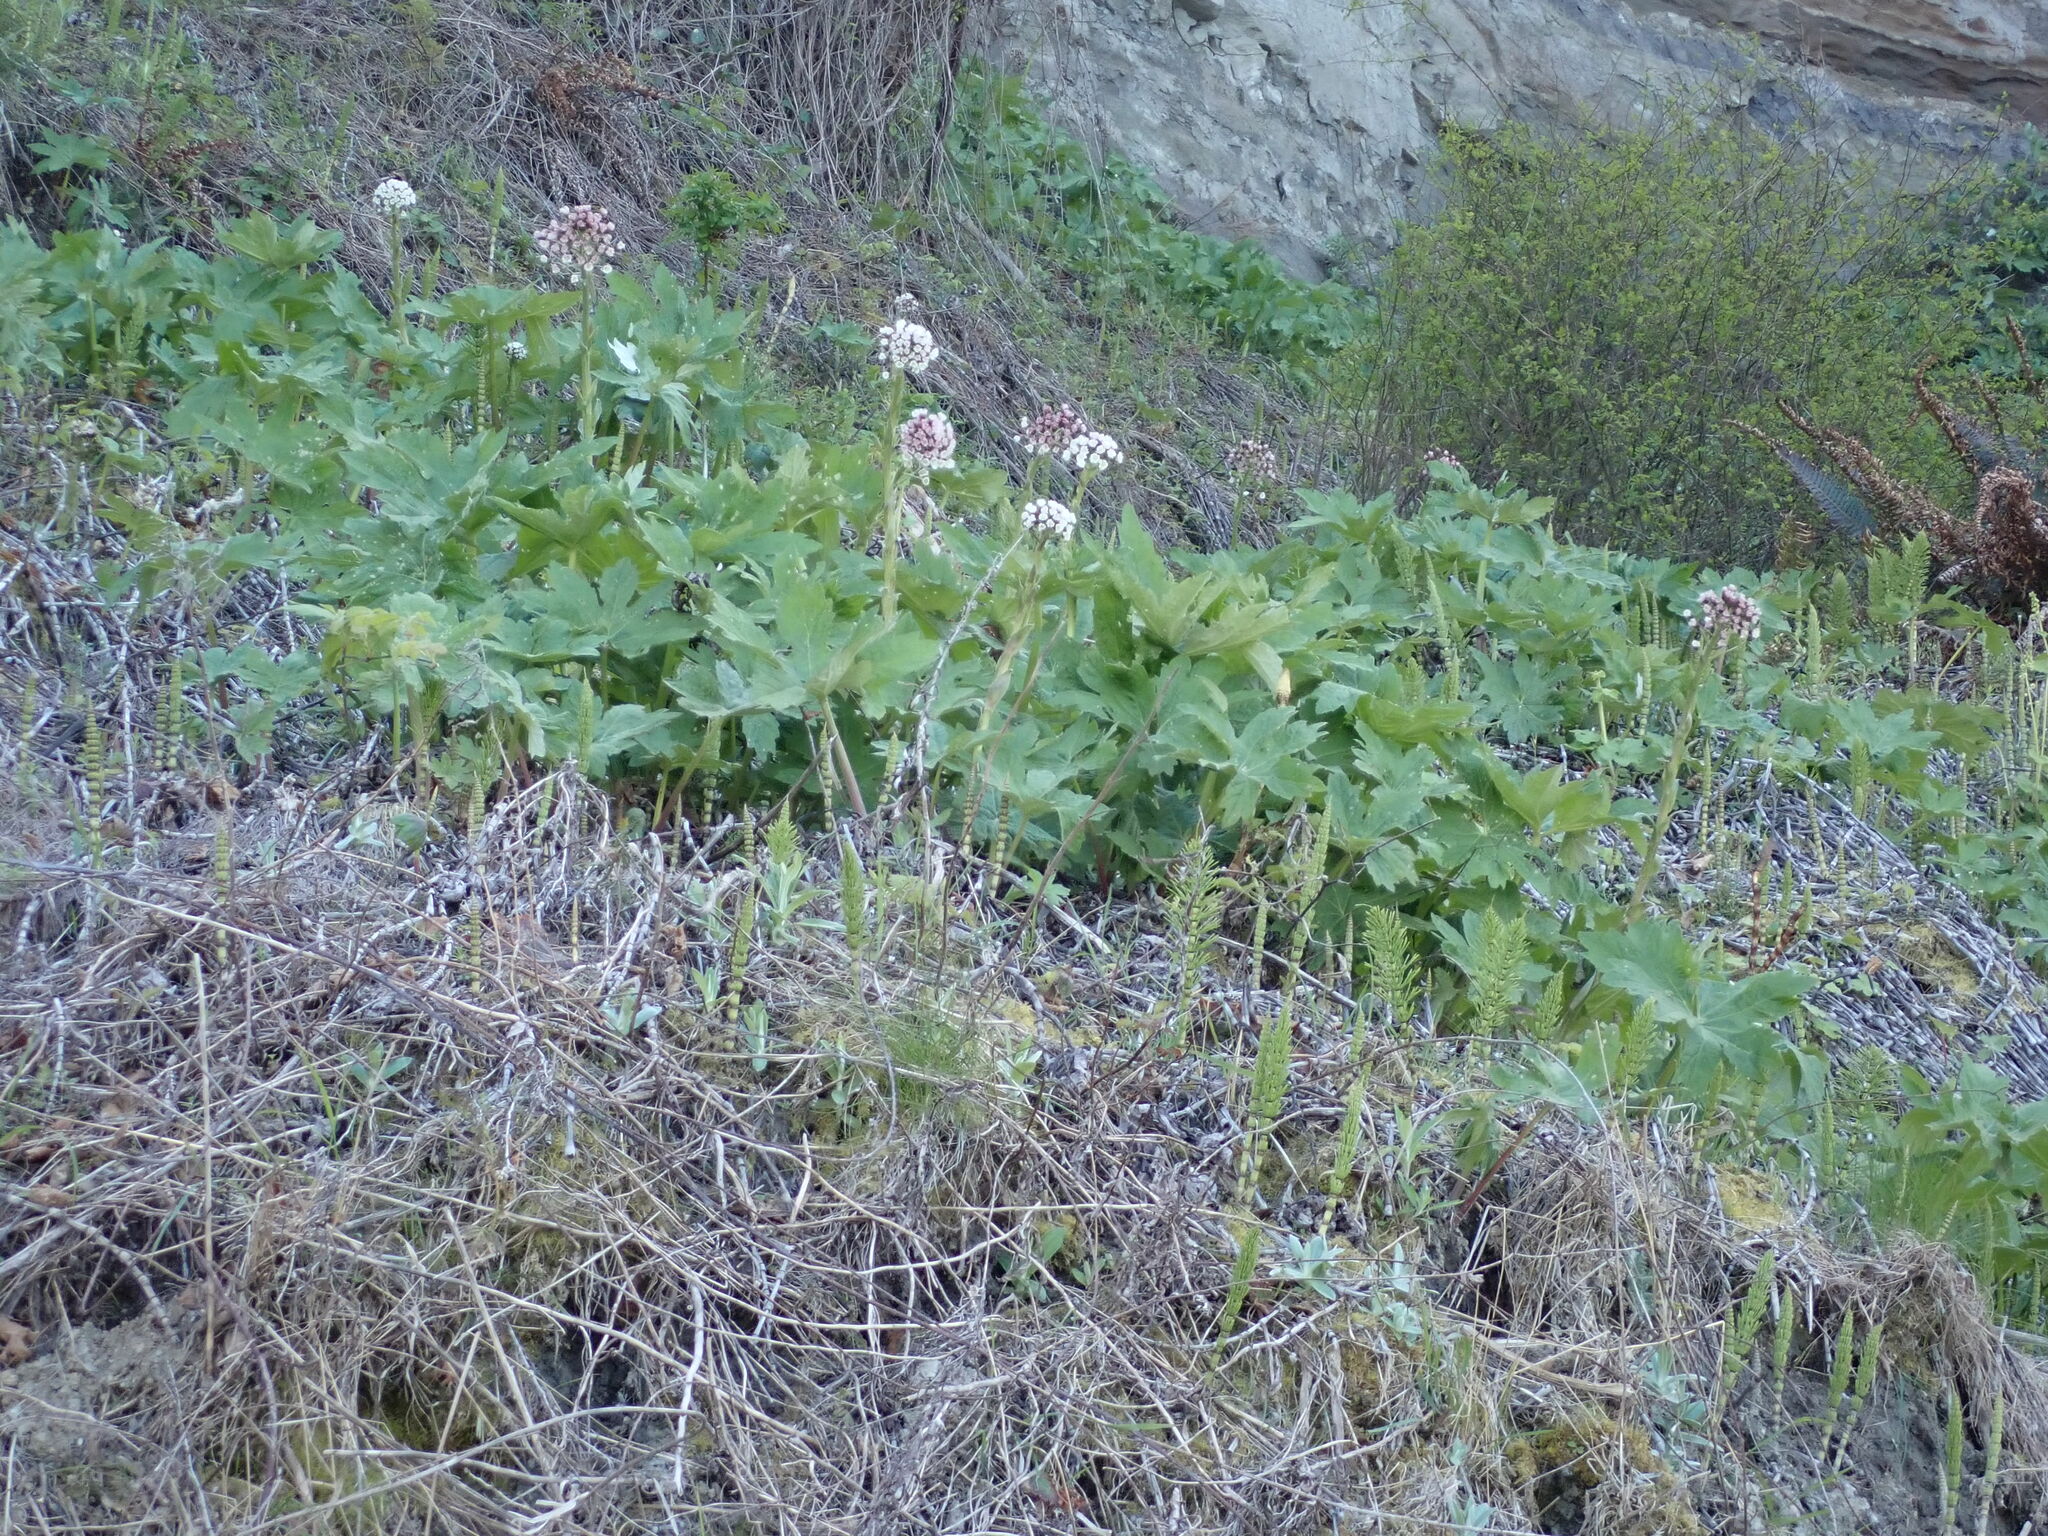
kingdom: Plantae
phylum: Tracheophyta
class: Magnoliopsida
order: Asterales
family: Asteraceae
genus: Petasites
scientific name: Petasites frigidus
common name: Arctic butterbur
